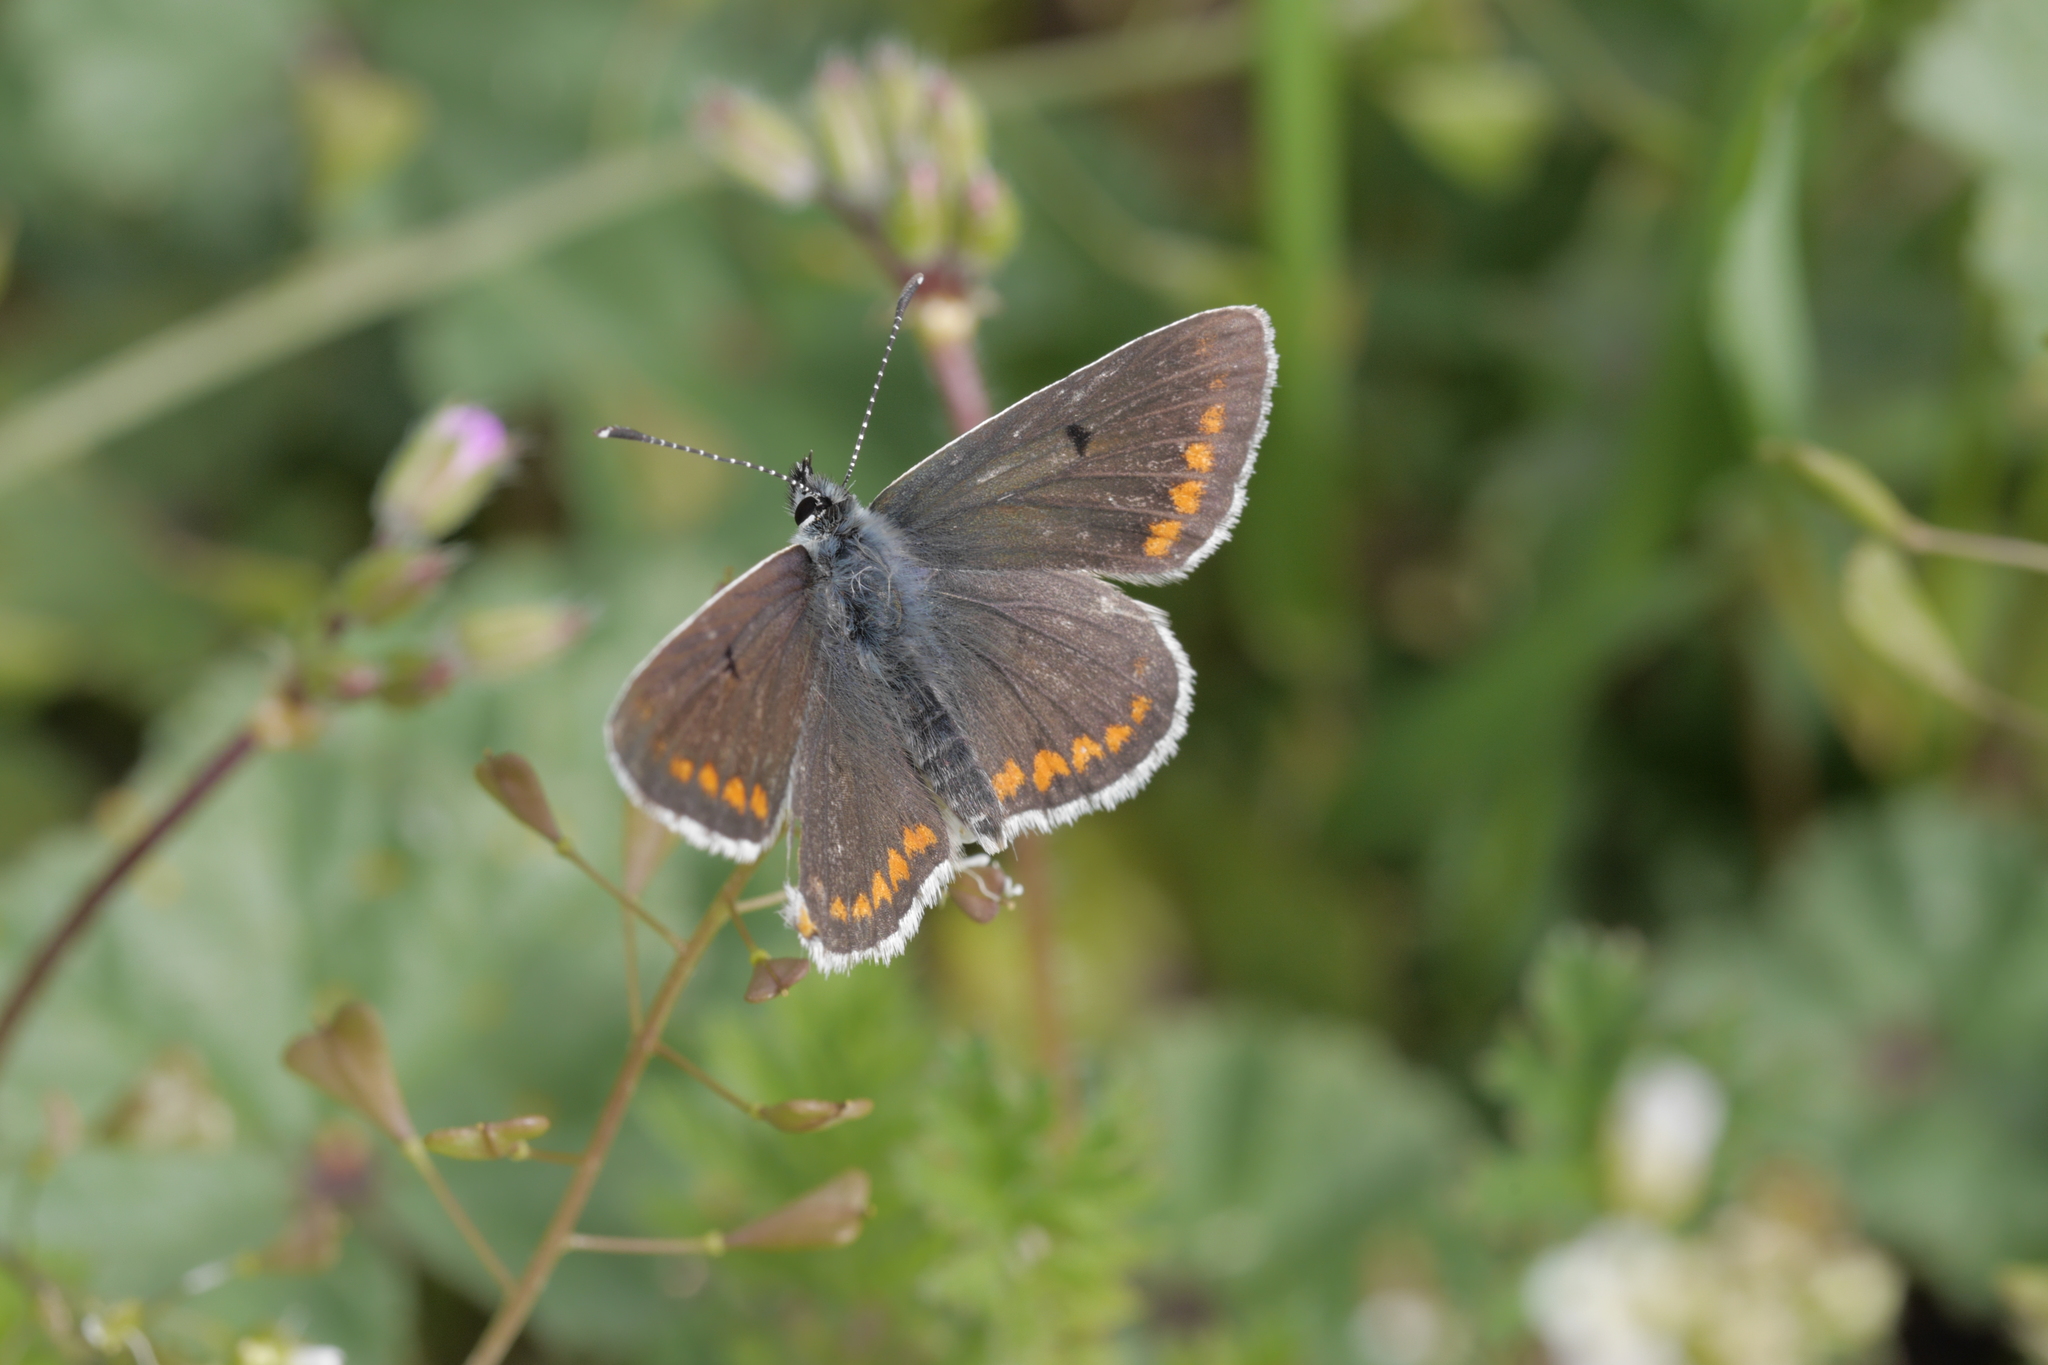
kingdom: Animalia
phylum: Arthropoda
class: Insecta
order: Lepidoptera
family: Lycaenidae
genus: Aricia
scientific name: Aricia agestis
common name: Brown argus
